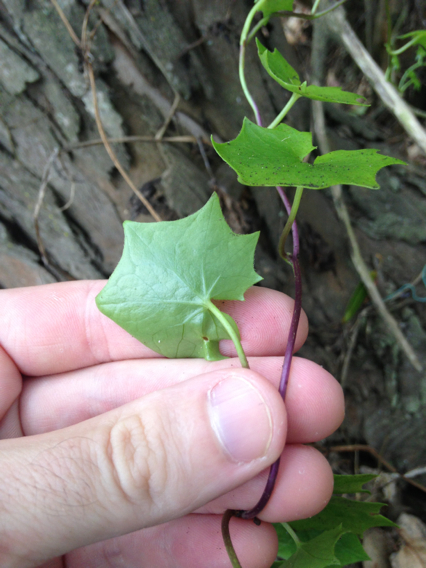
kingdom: Plantae
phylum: Tracheophyta
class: Magnoliopsida
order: Asterales
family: Asteraceae
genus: Delairea
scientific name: Delairea odorata
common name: Cape-ivy
